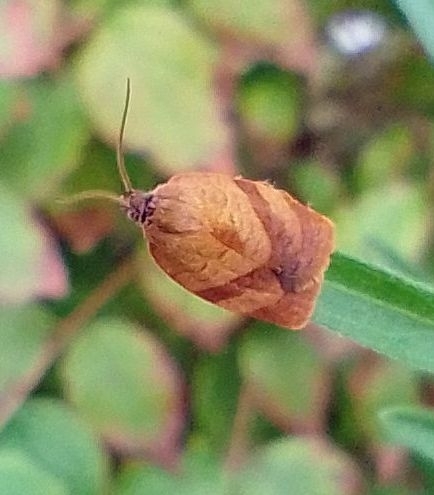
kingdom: Animalia
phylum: Arthropoda
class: Insecta
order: Lepidoptera
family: Tortricidae
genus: Cacoecimorpha
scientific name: Cacoecimorpha pronubana
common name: Carnation tortrix
